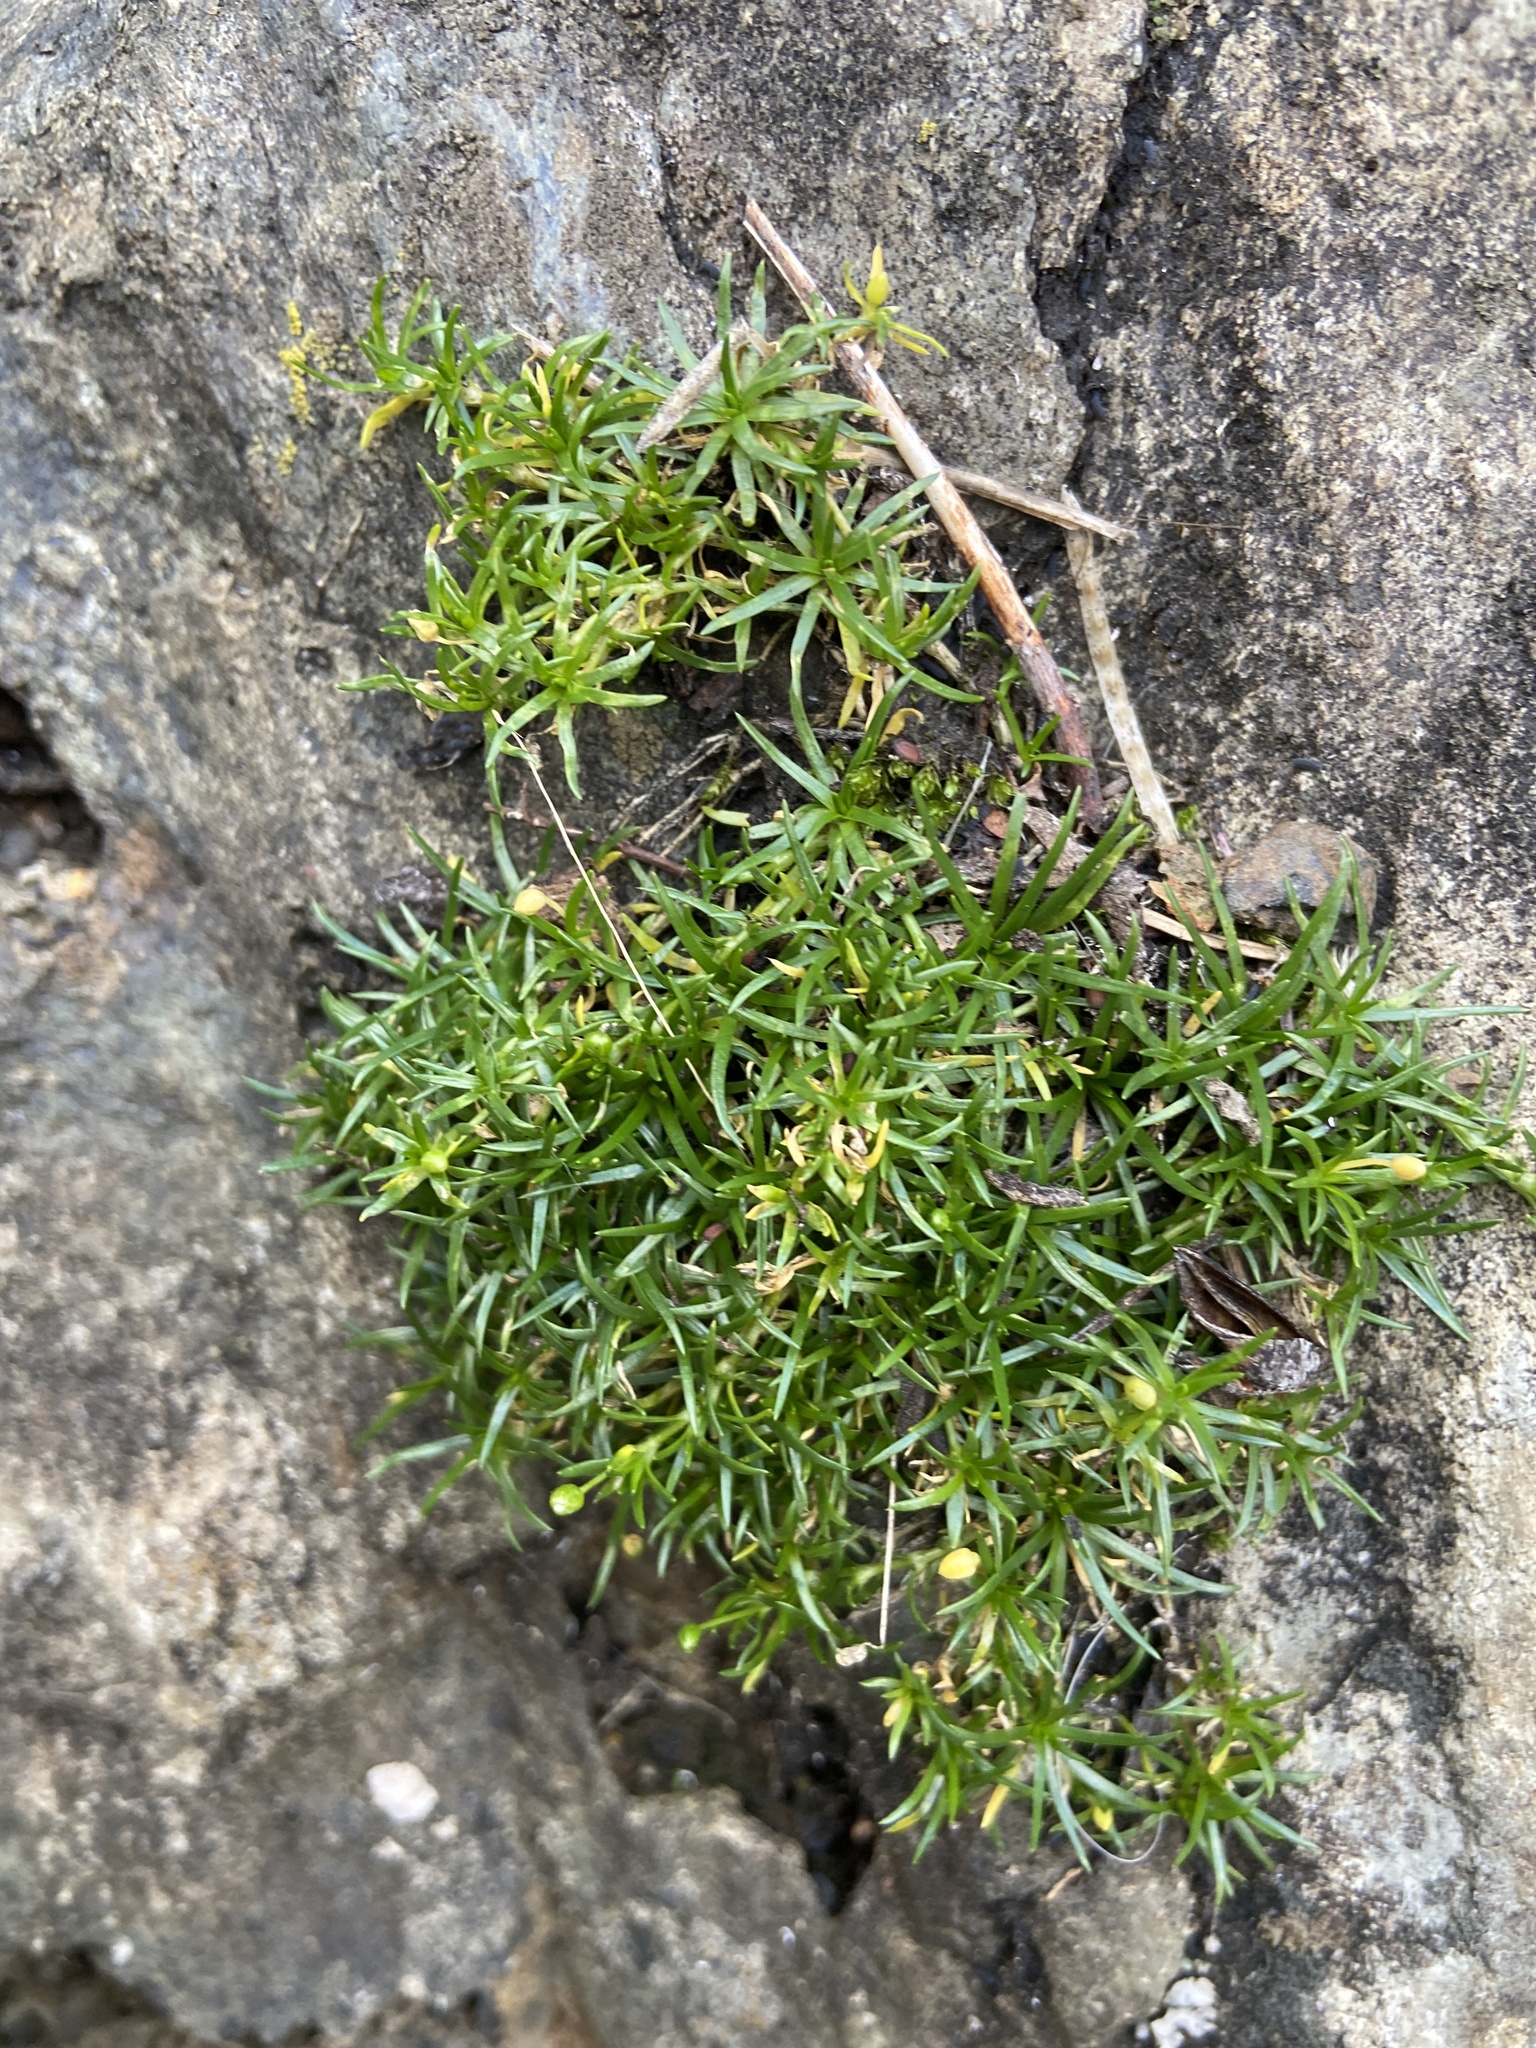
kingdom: Plantae
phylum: Tracheophyta
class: Magnoliopsida
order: Caryophyllales
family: Caryophyllaceae
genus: Sagina
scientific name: Sagina procumbens
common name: Procumbent pearlwort
